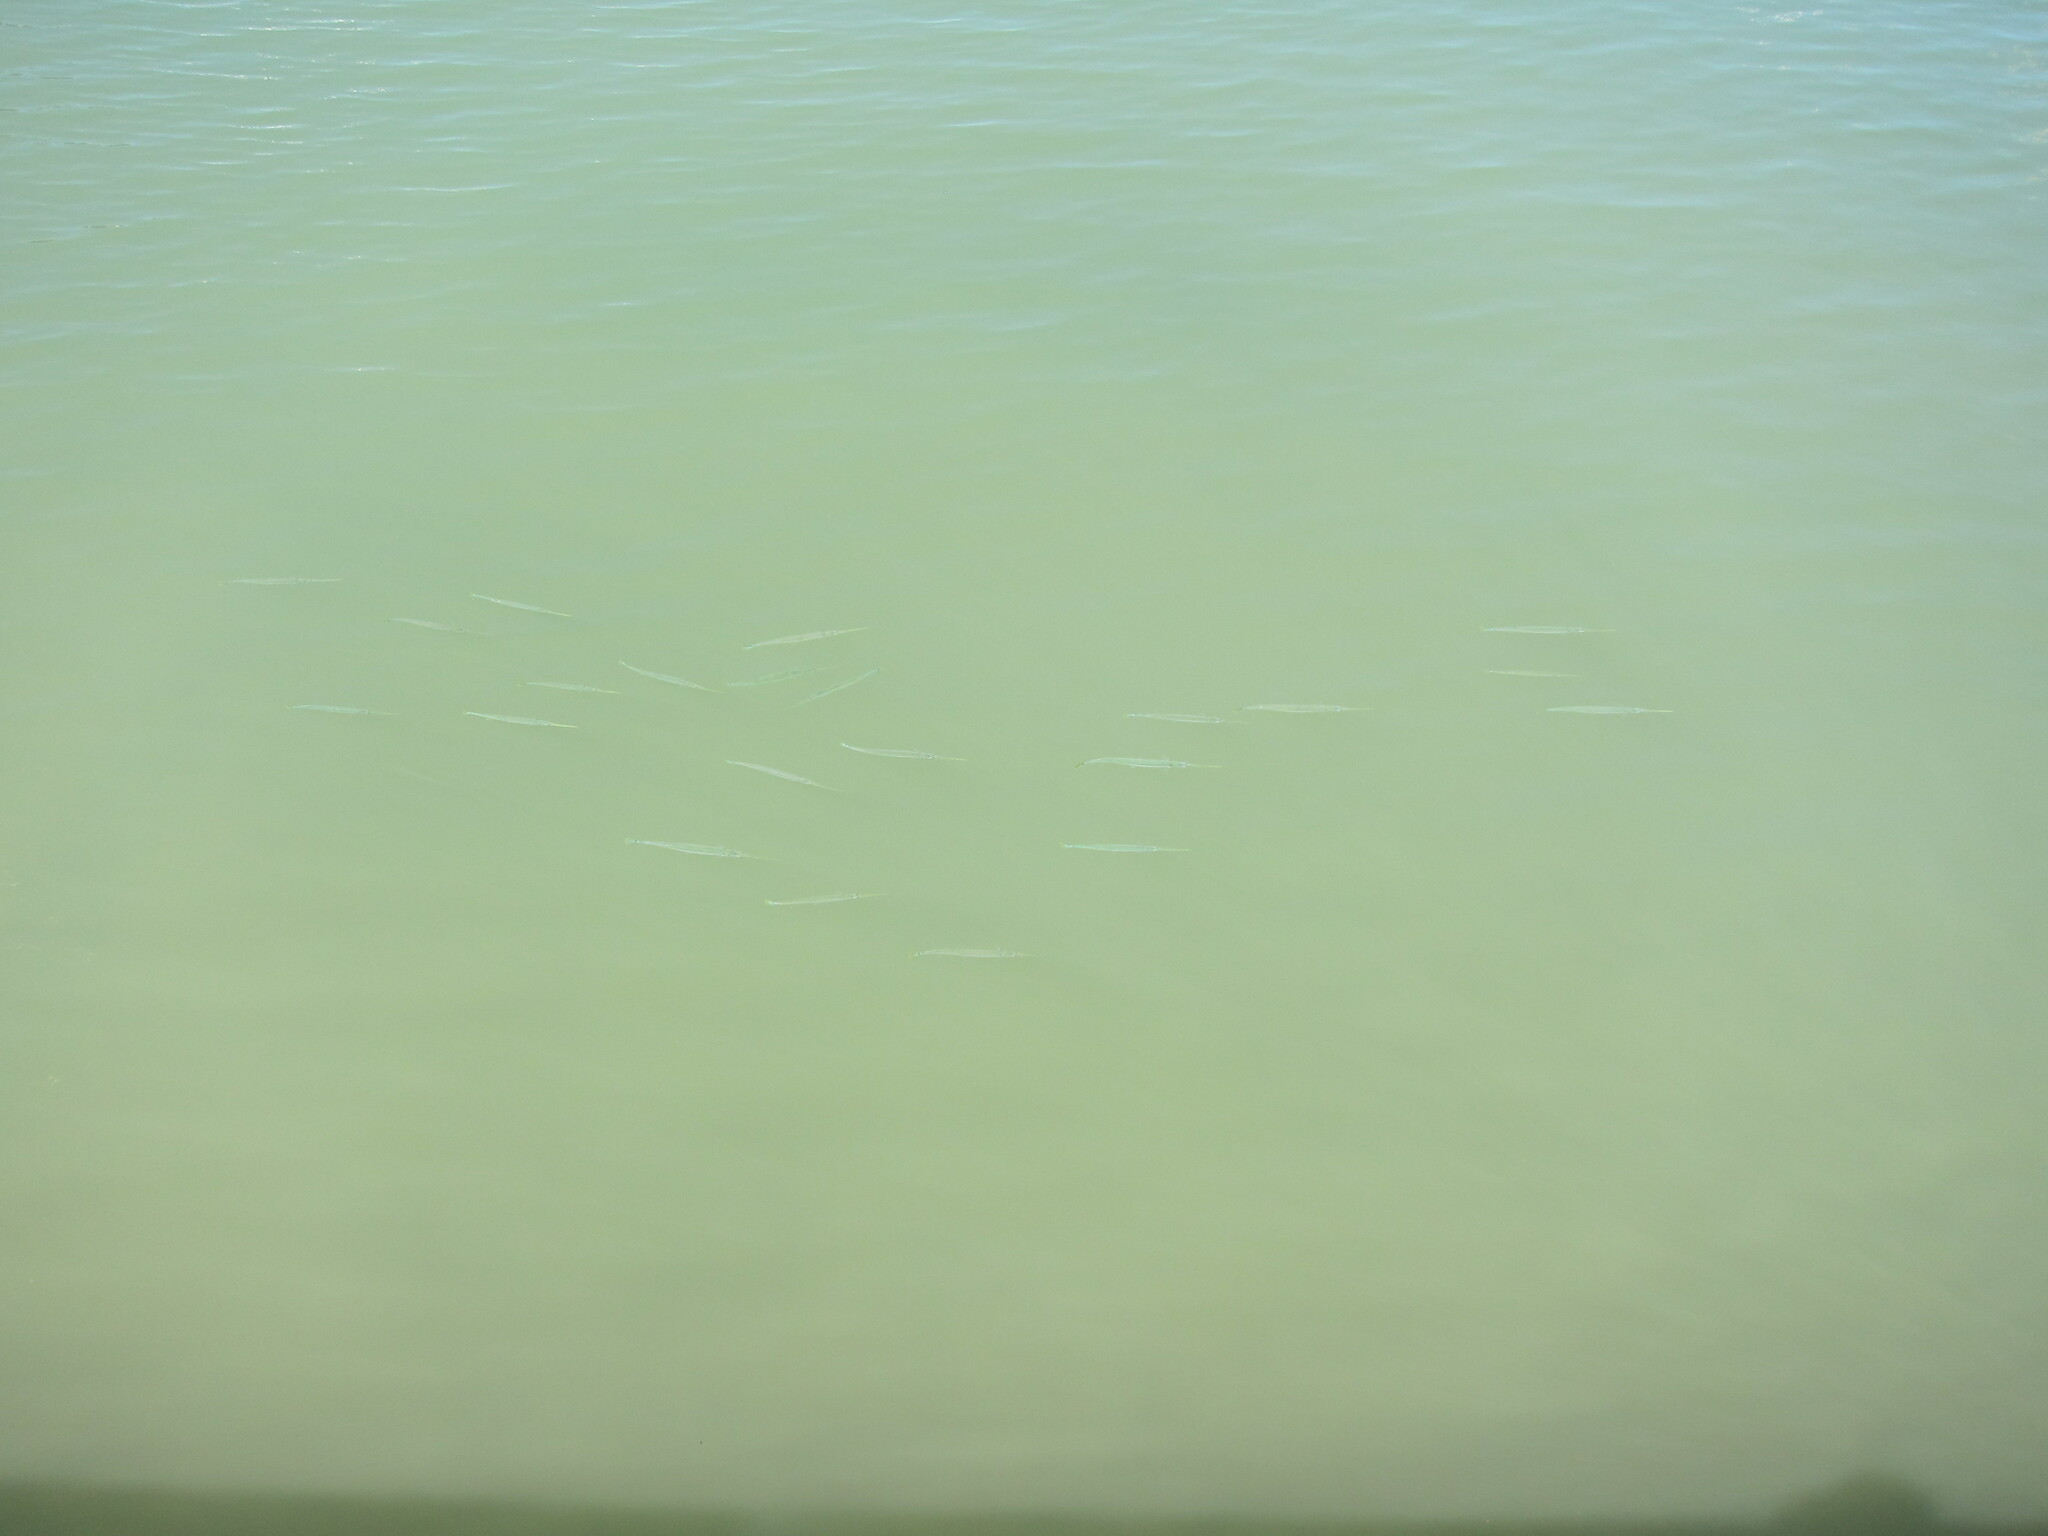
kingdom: Animalia
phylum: Chordata
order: Beloniformes
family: Belonidae
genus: Strongylura
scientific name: Strongylura strongylura
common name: Spottail needlefish
